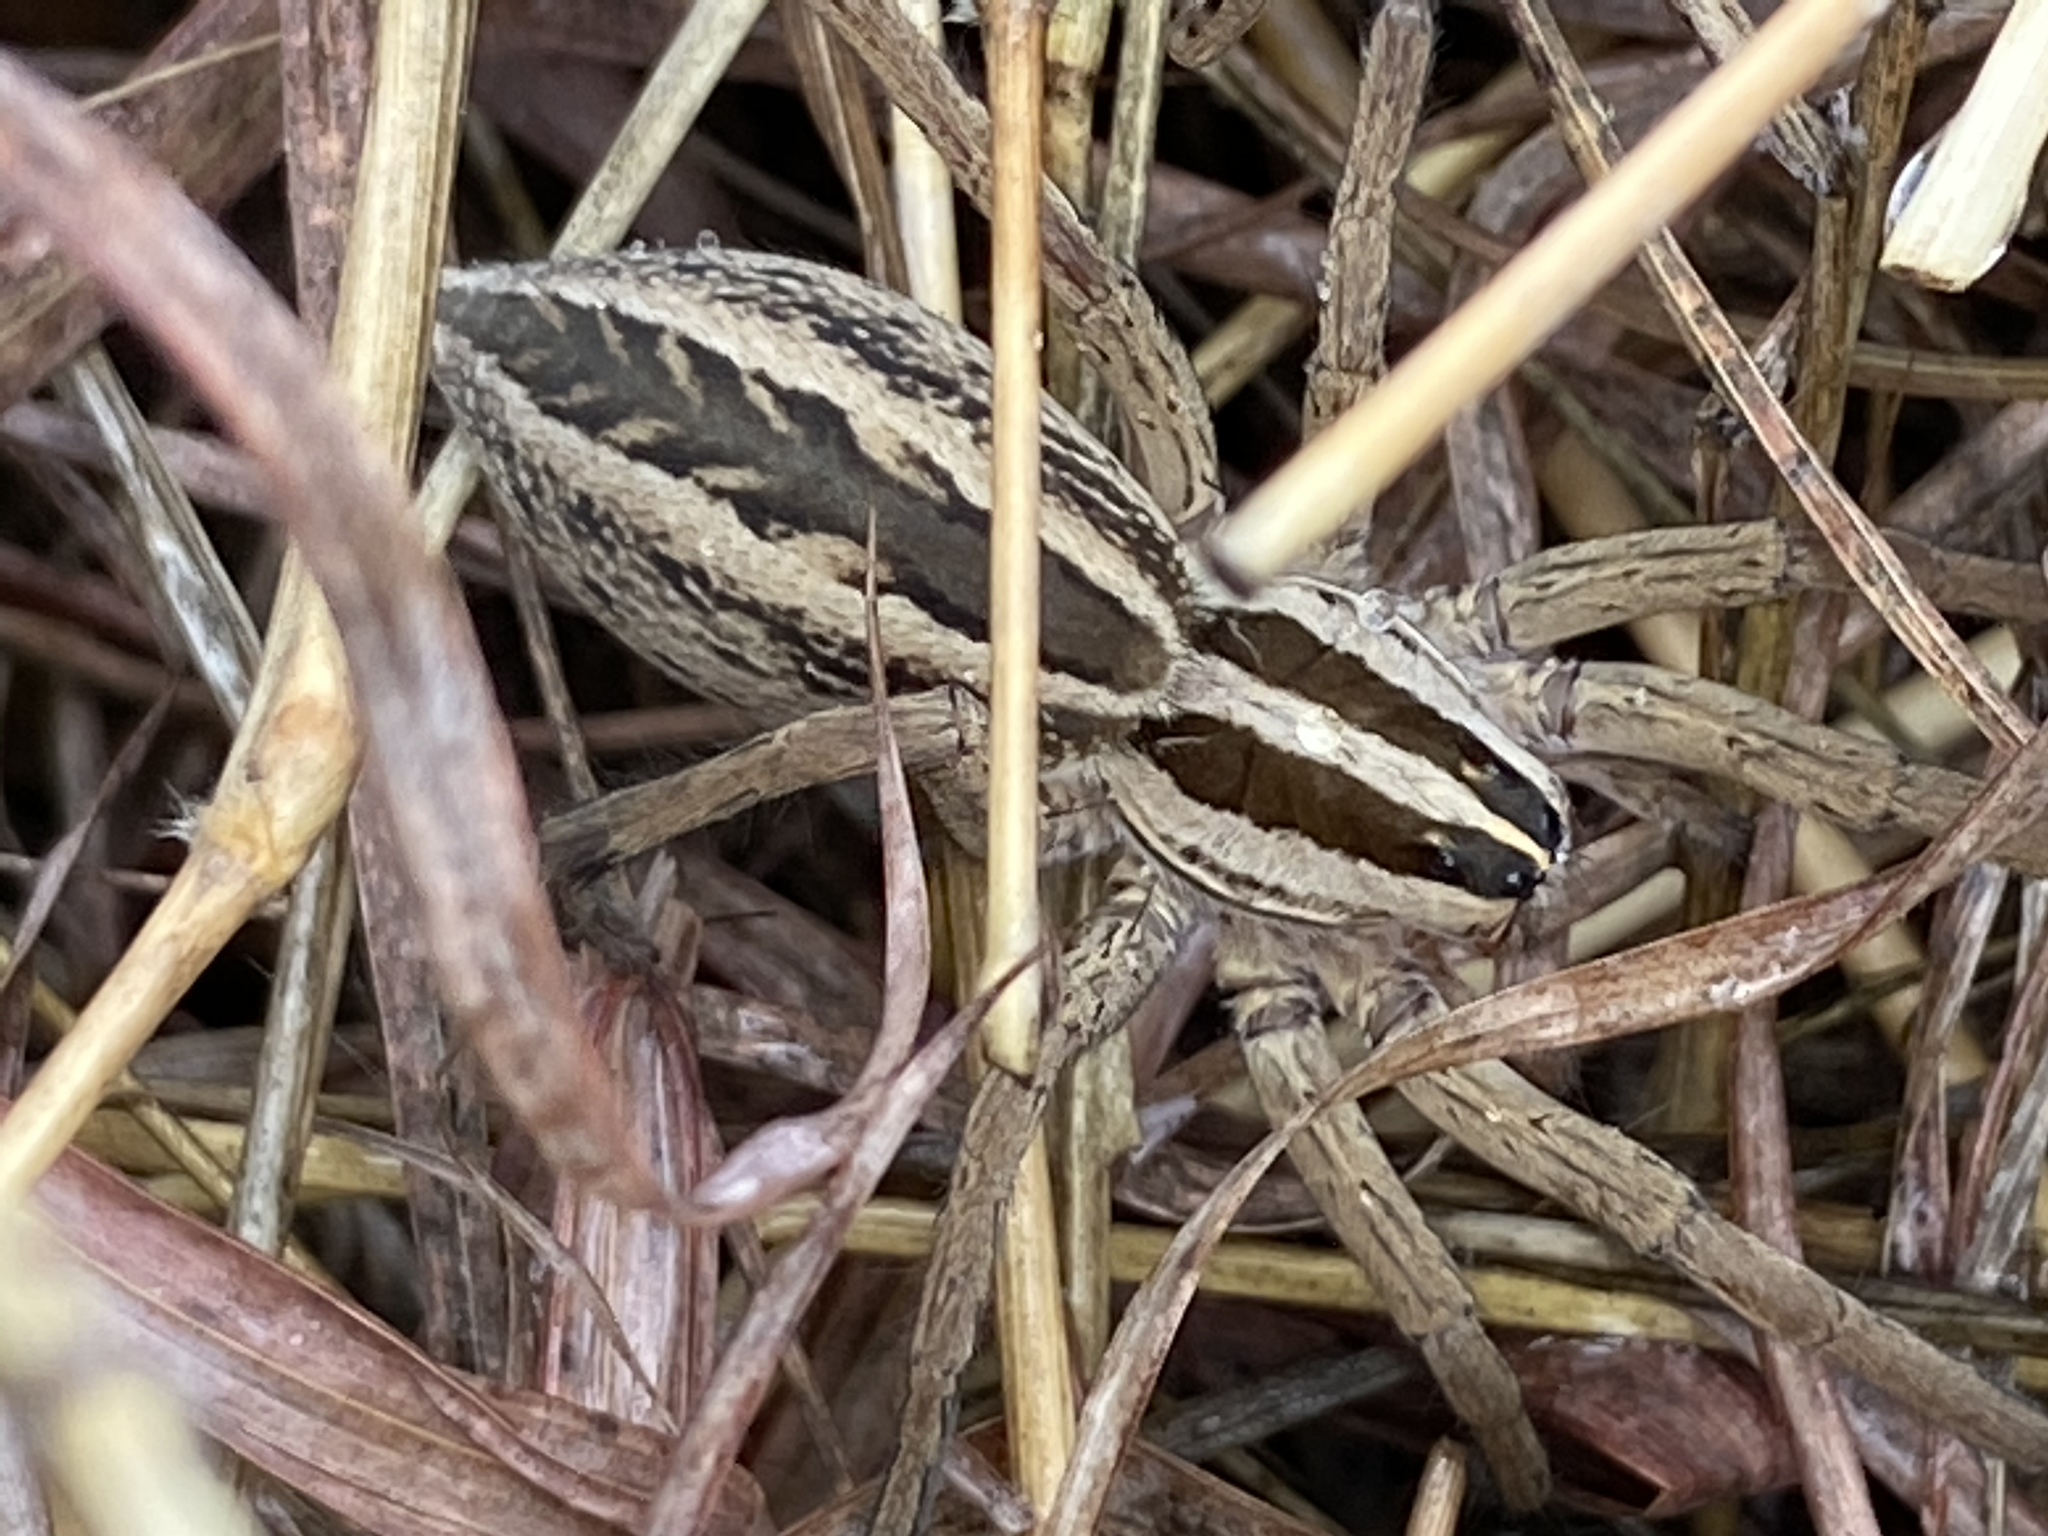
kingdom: Animalia
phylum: Arthropoda
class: Arachnida
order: Araneae
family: Lycosidae
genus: Rabidosa
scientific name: Rabidosa rabida
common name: Rabid wolf spider
